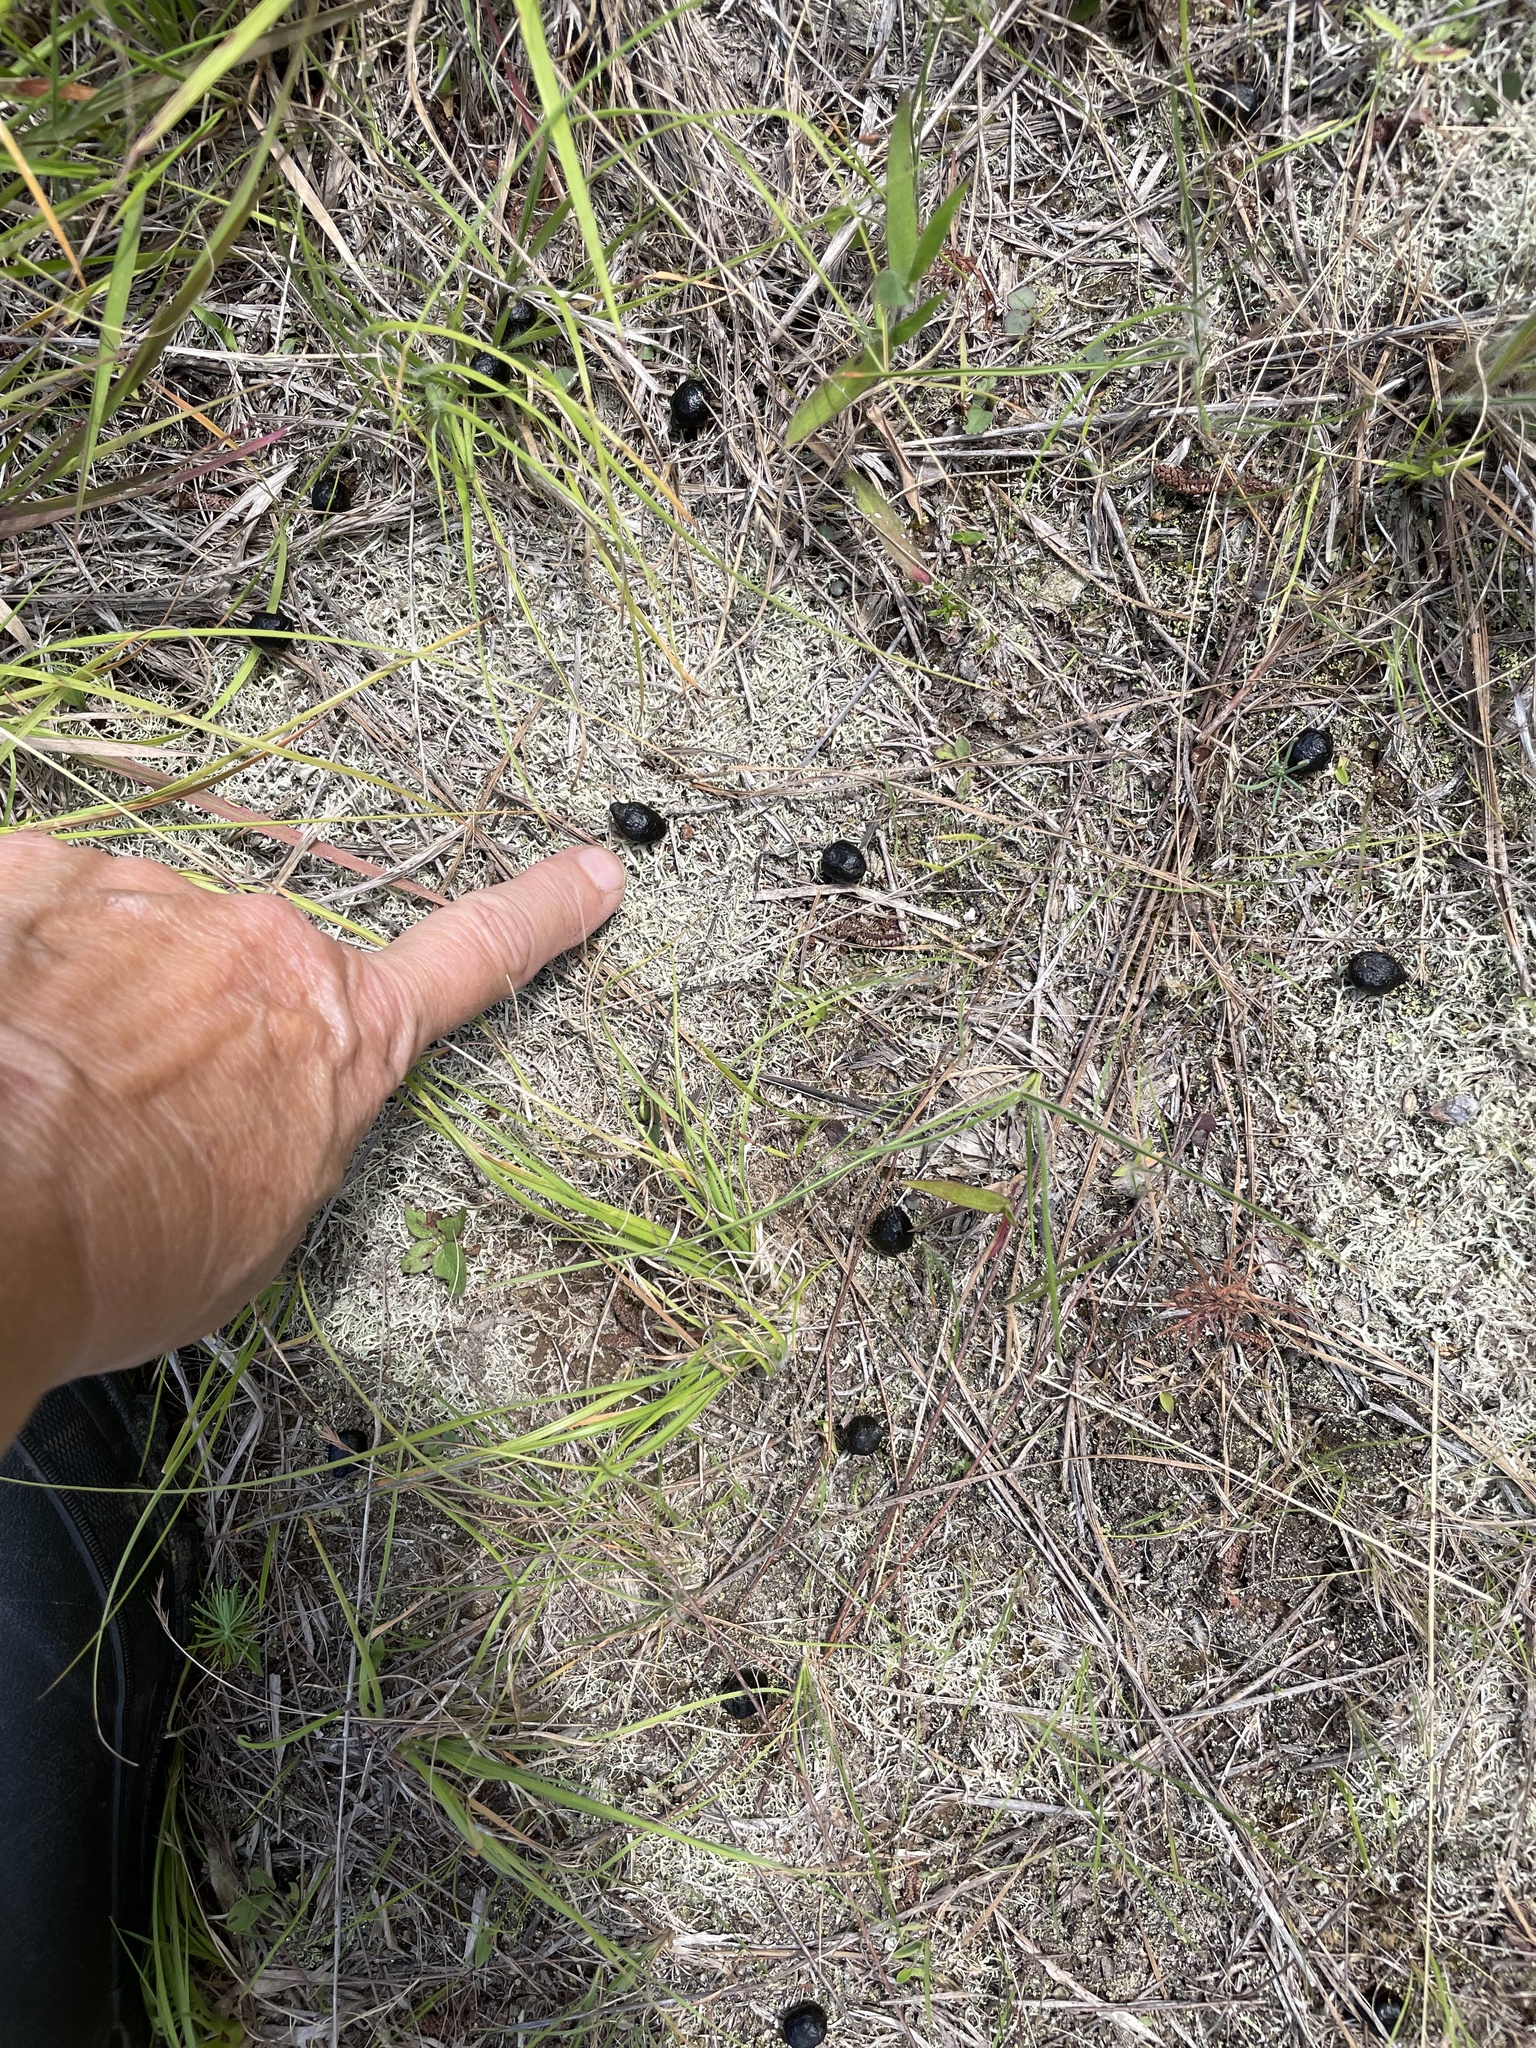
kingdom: Animalia
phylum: Chordata
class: Mammalia
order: Artiodactyla
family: Cervidae
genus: Odocoileus
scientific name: Odocoileus virginianus
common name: White-tailed deer
